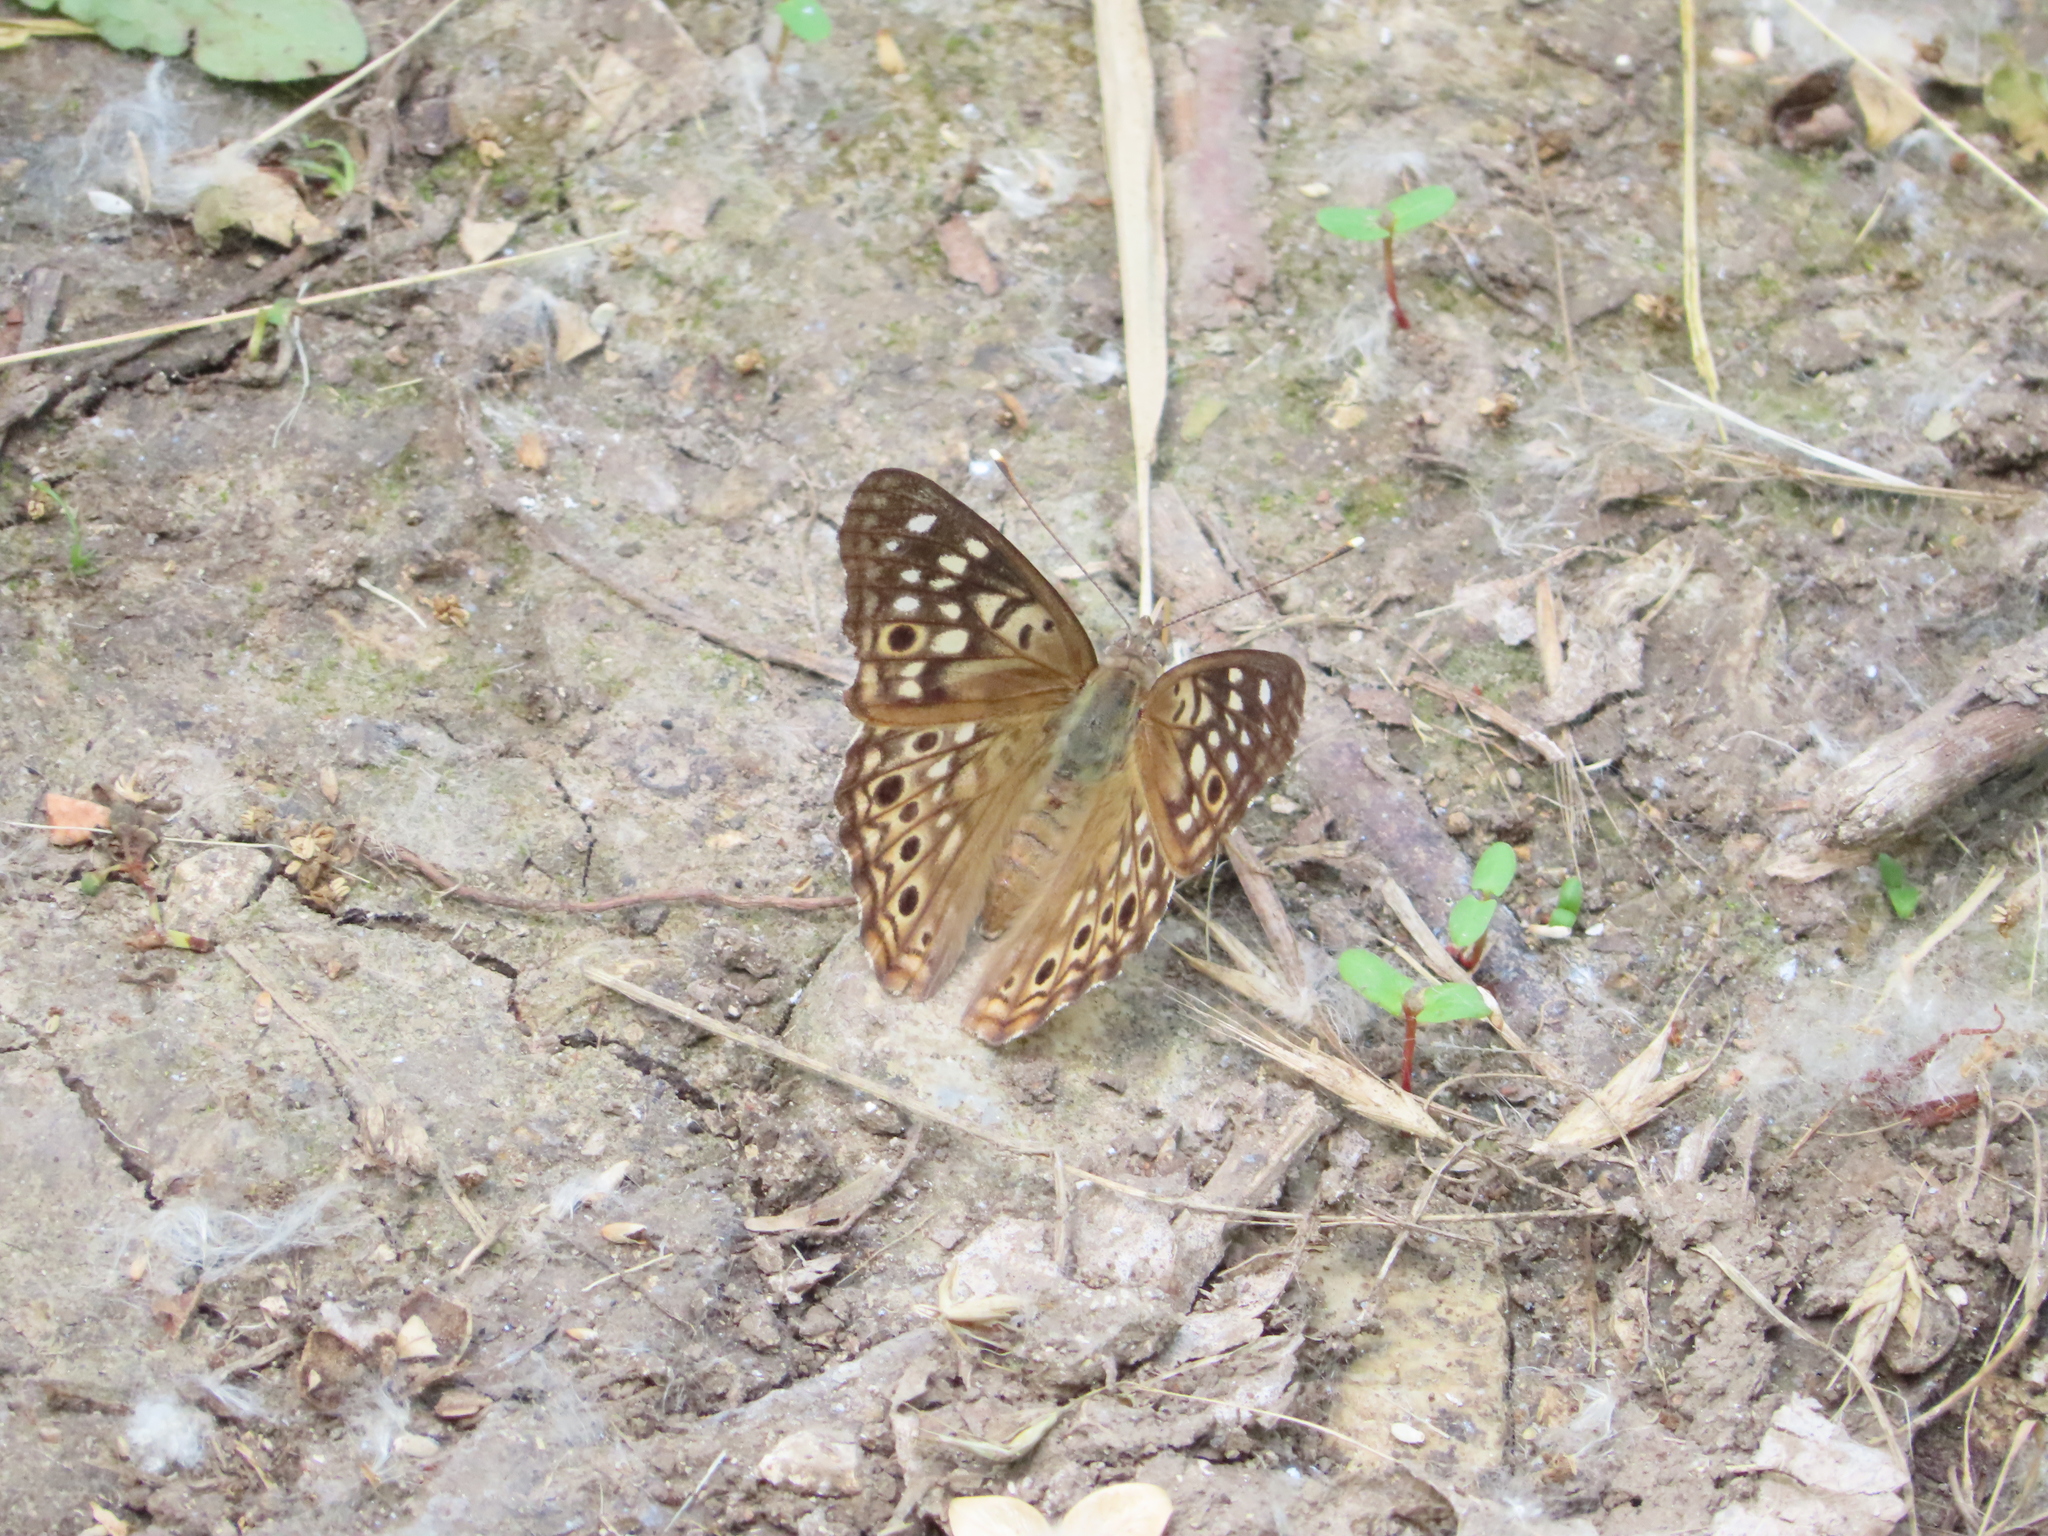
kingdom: Animalia
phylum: Arthropoda
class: Insecta
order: Lepidoptera
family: Nymphalidae
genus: Asterocampa
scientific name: Asterocampa celtis
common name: Hackberry emperor
